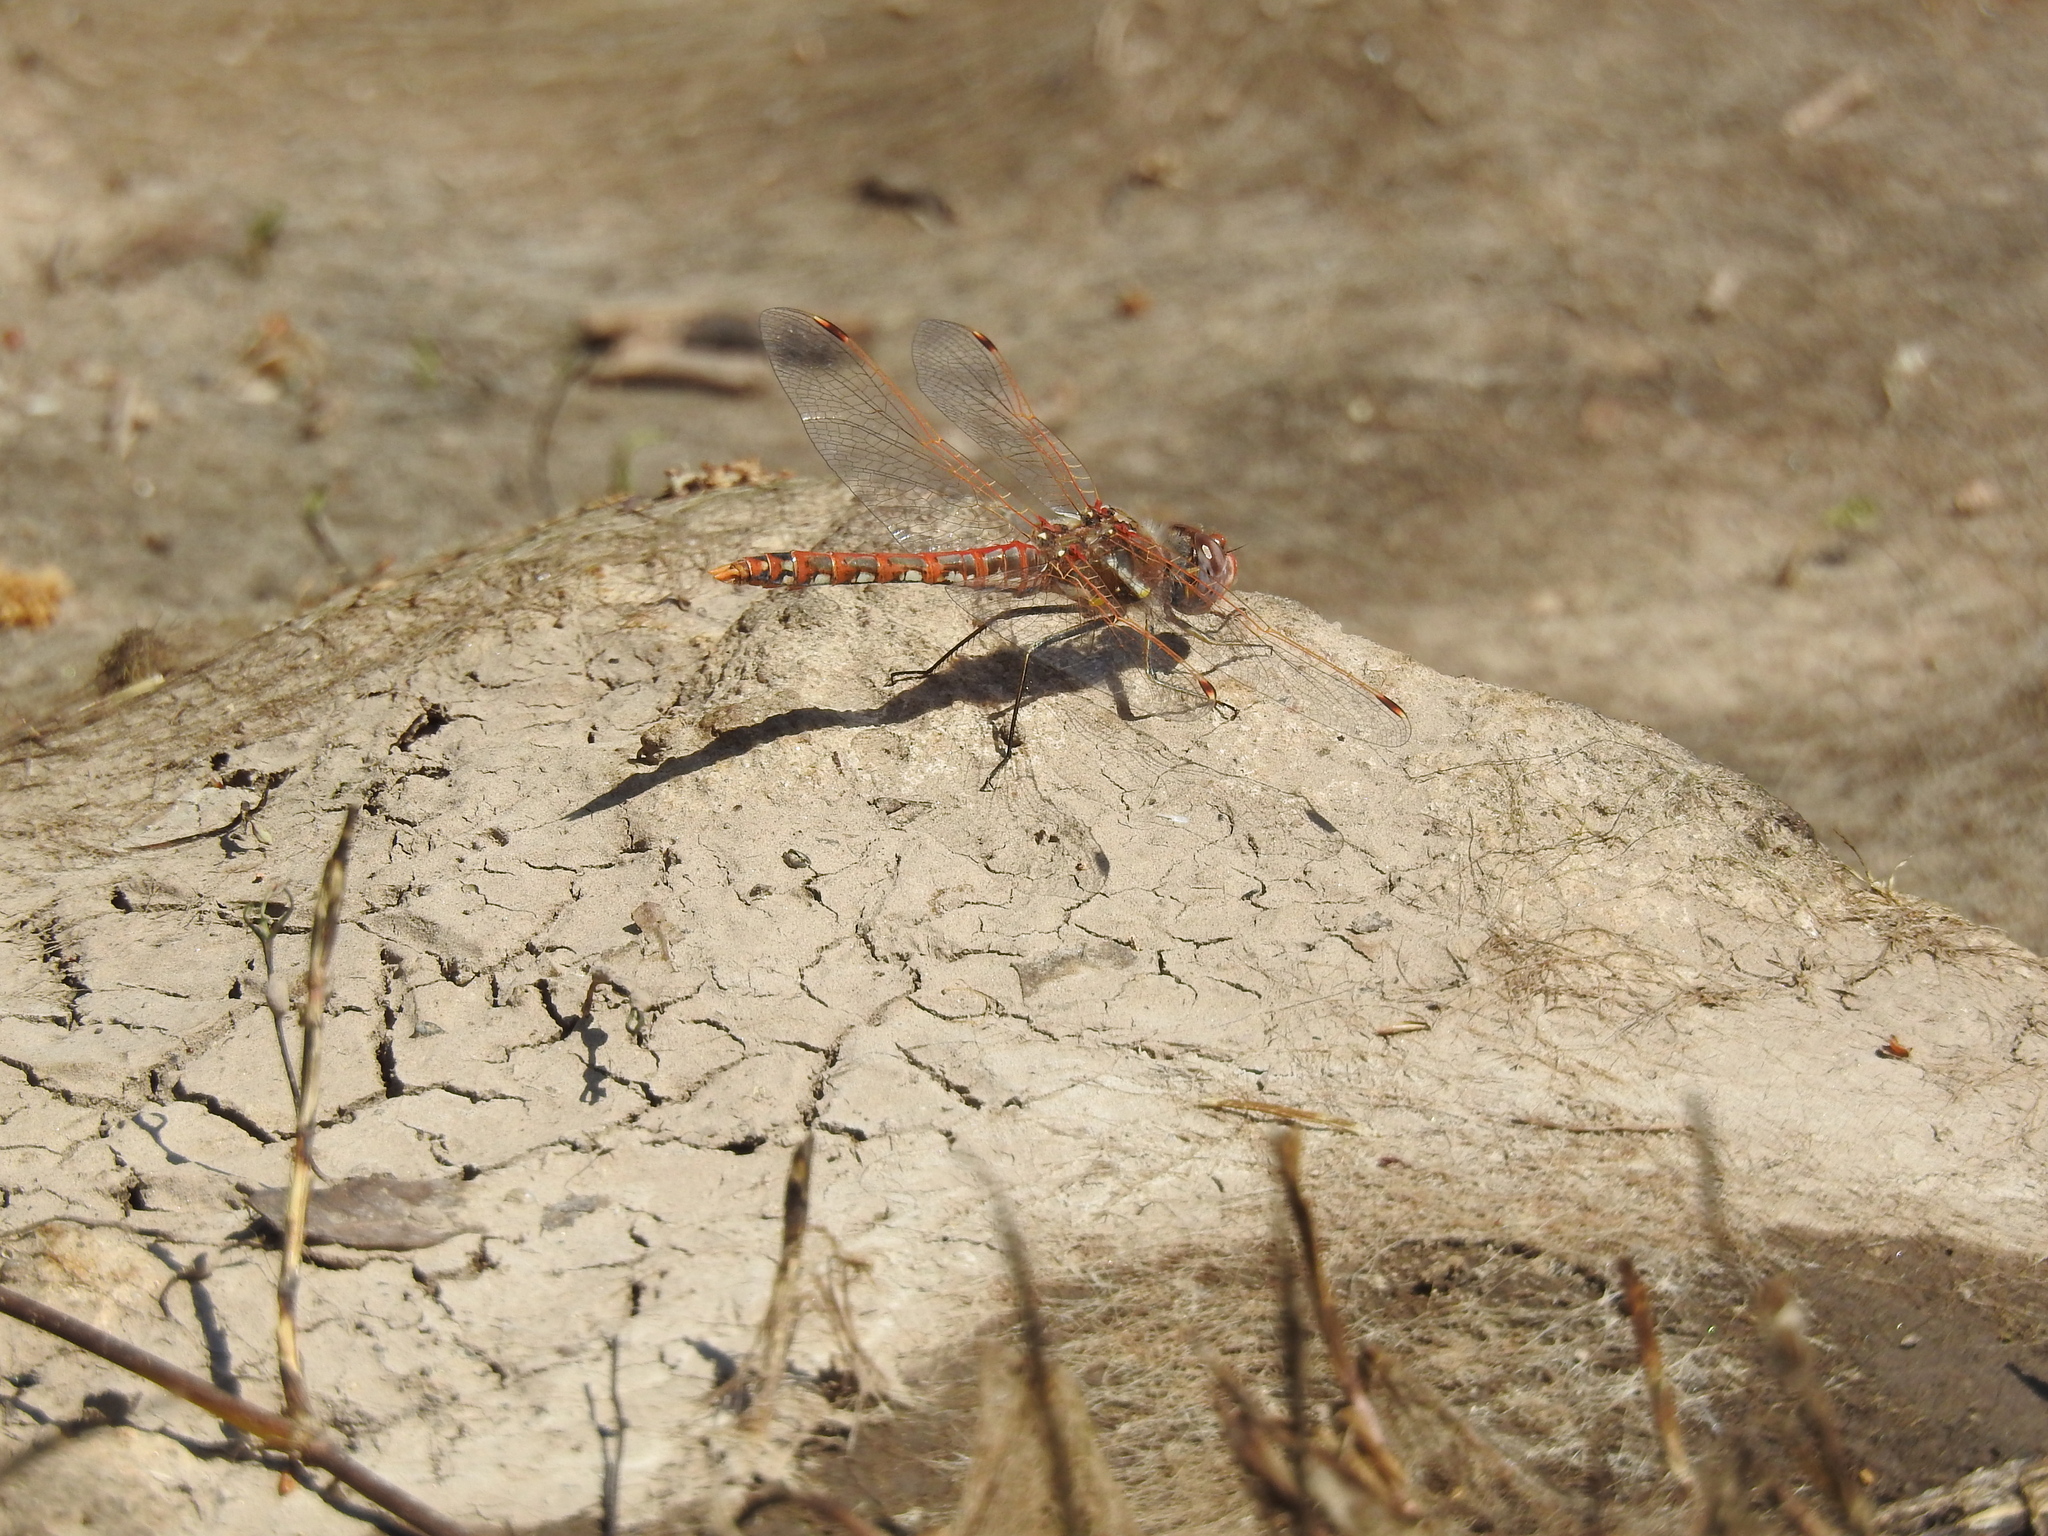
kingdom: Animalia
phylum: Arthropoda
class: Insecta
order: Odonata
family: Libellulidae
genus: Sympetrum
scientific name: Sympetrum corruptum
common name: Variegated meadowhawk
